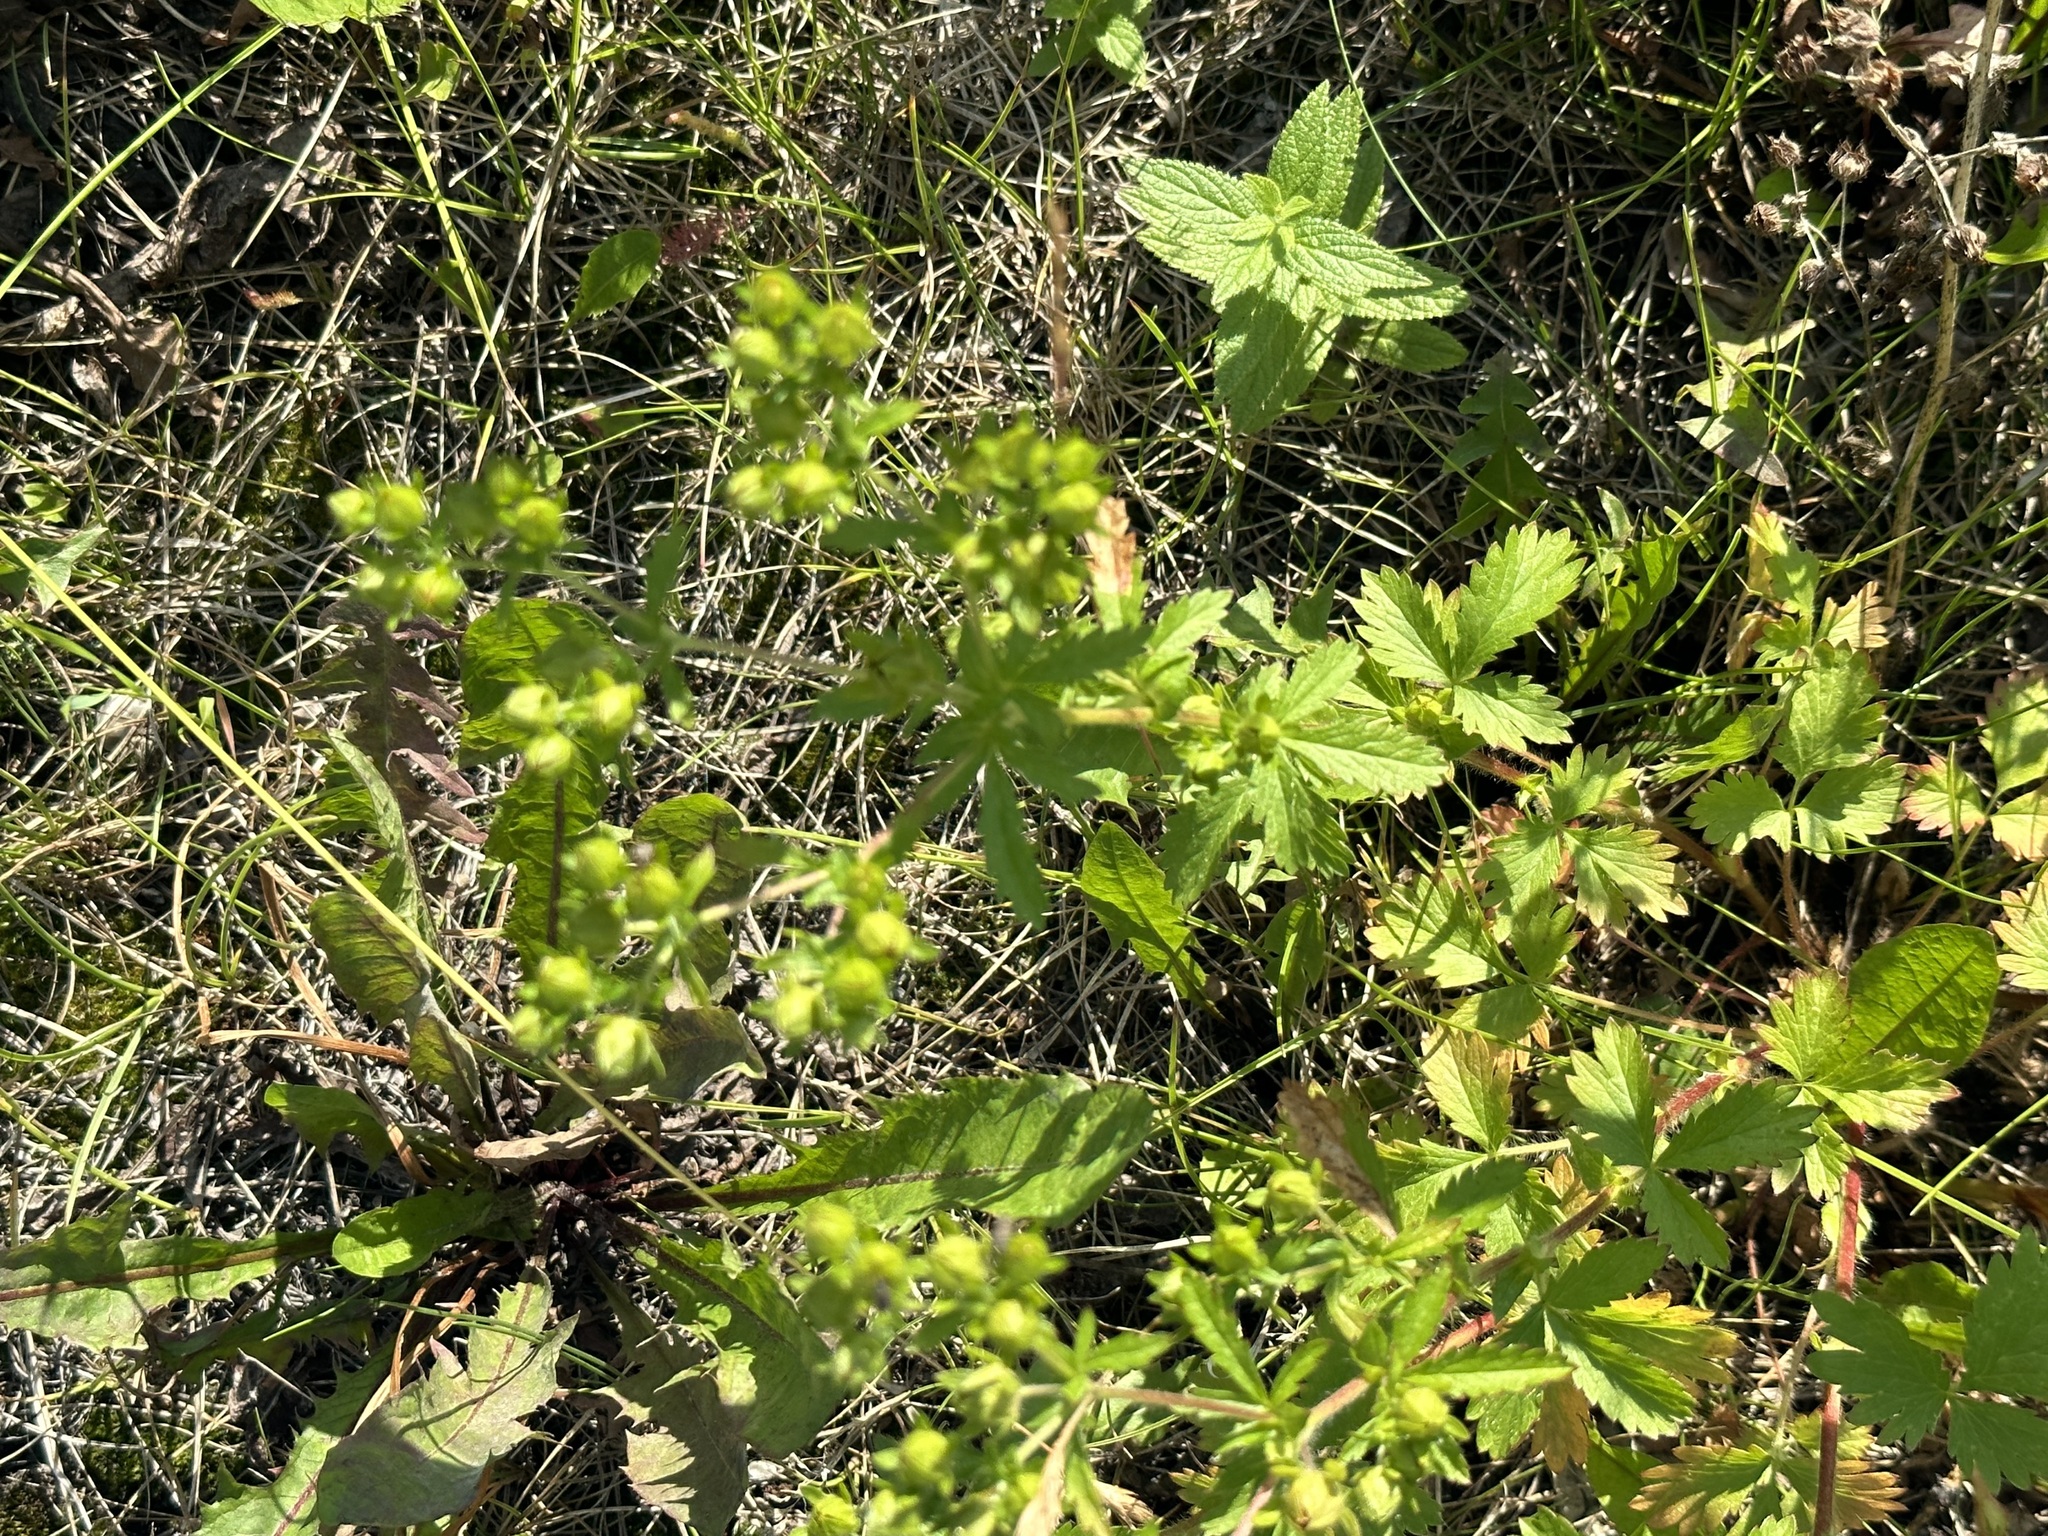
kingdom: Plantae
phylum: Tracheophyta
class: Magnoliopsida
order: Rosales
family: Rosaceae
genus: Potentilla
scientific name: Potentilla norvegica
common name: Ternate-leaved cinquefoil
